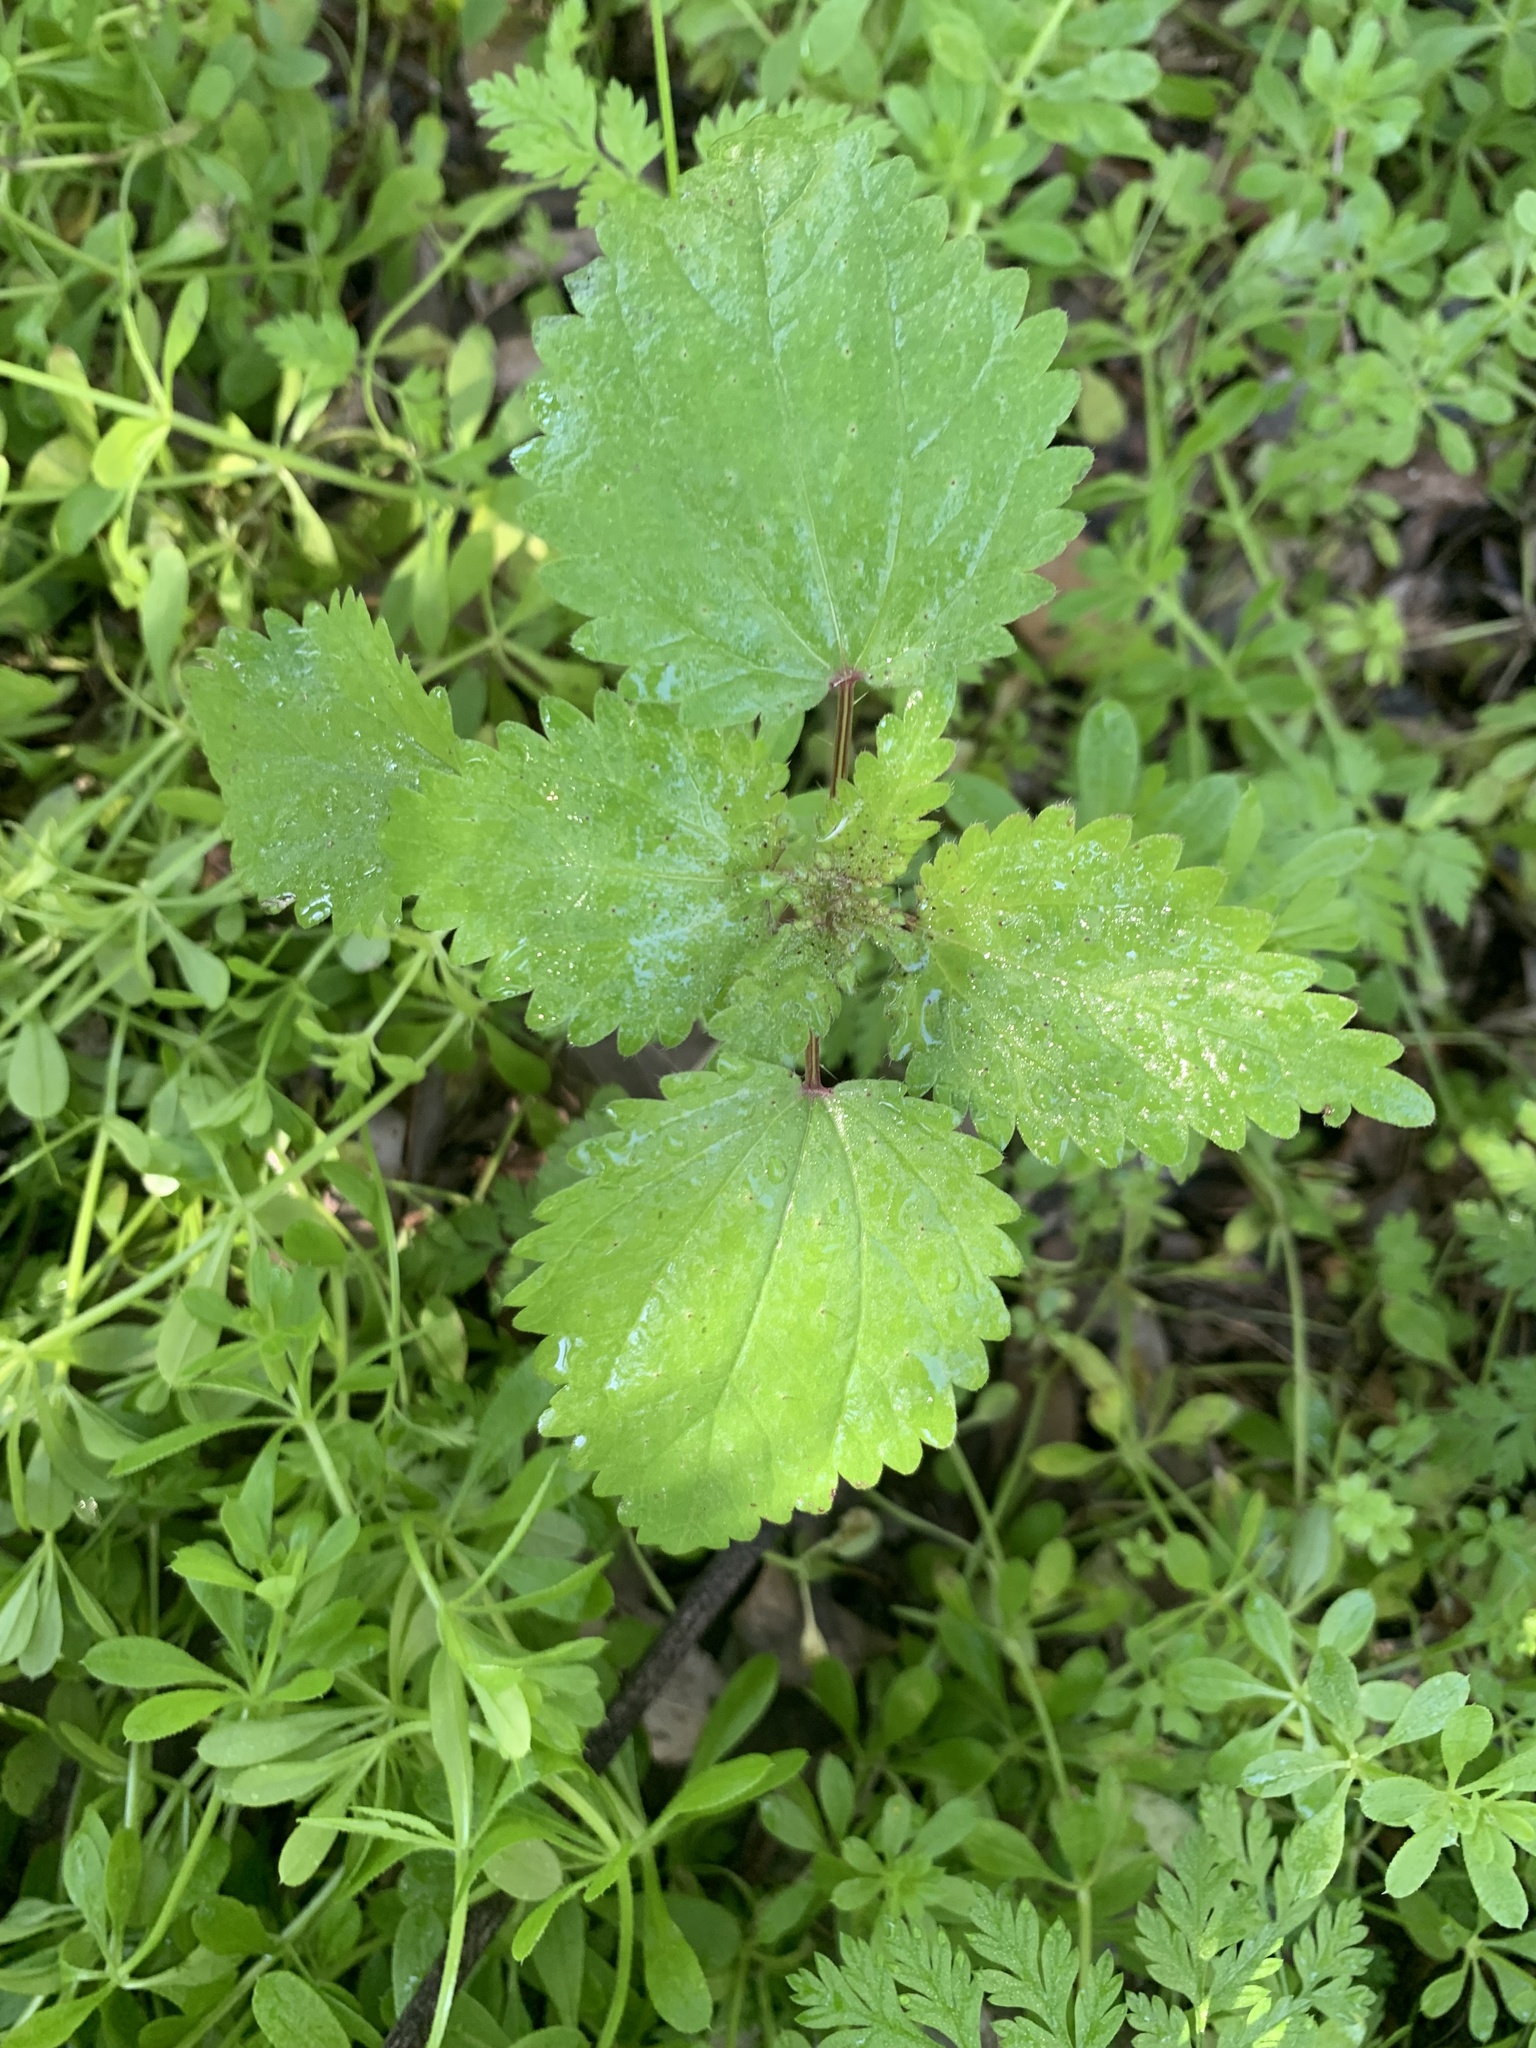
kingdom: Plantae
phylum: Tracheophyta
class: Magnoliopsida
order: Rosales
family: Urticaceae
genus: Urtica
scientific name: Urtica chamaedryoides
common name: Heart-leaf nettle
